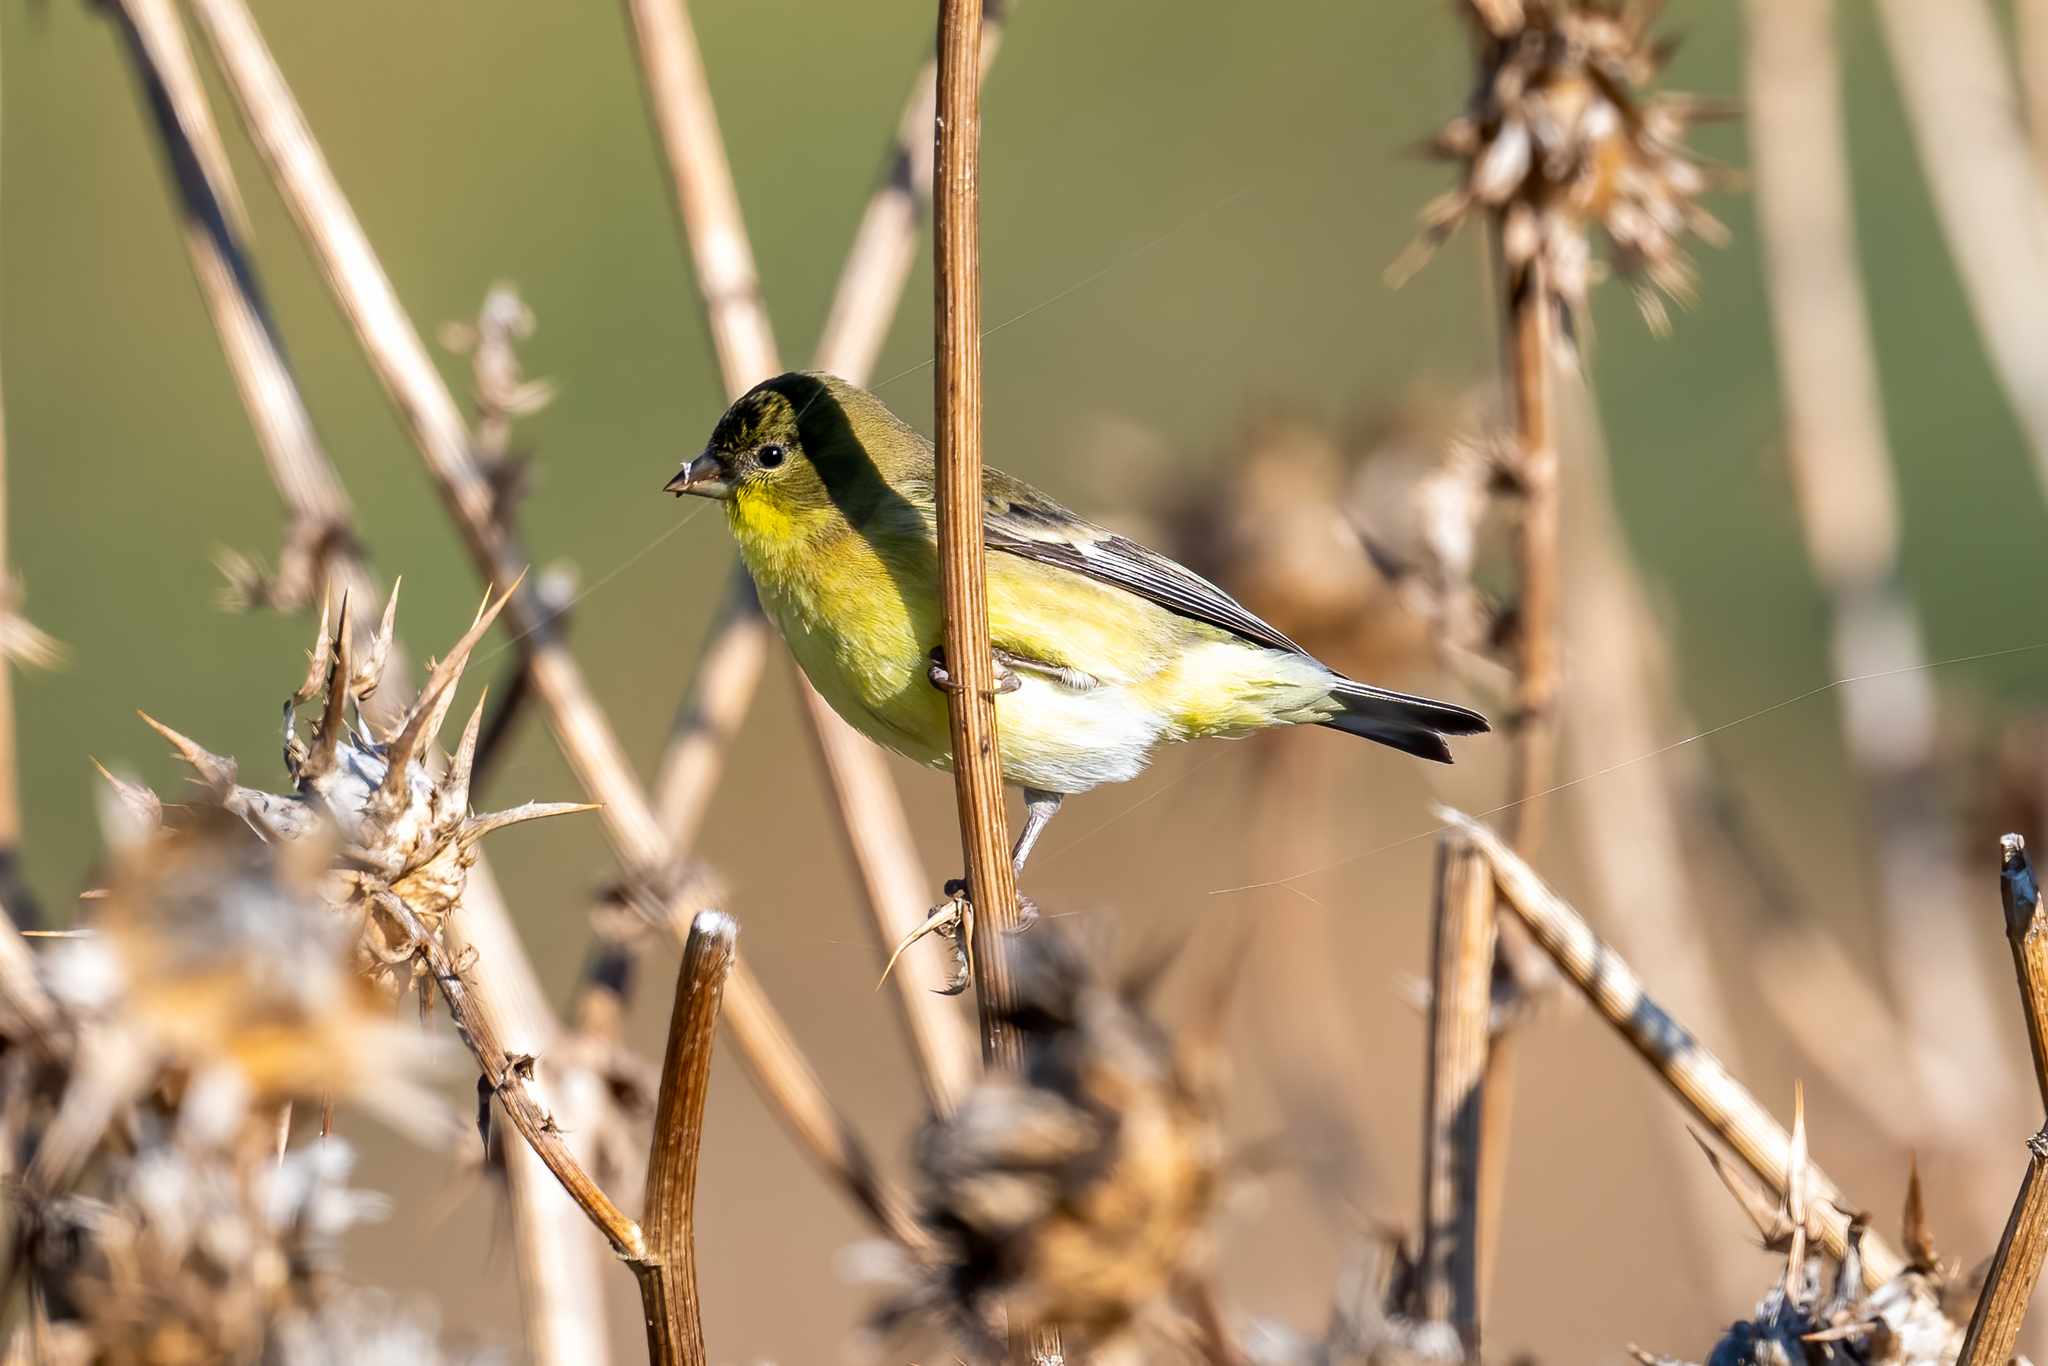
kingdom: Animalia
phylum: Chordata
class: Aves
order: Passeriformes
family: Fringillidae
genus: Spinus
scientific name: Spinus psaltria
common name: Lesser goldfinch
